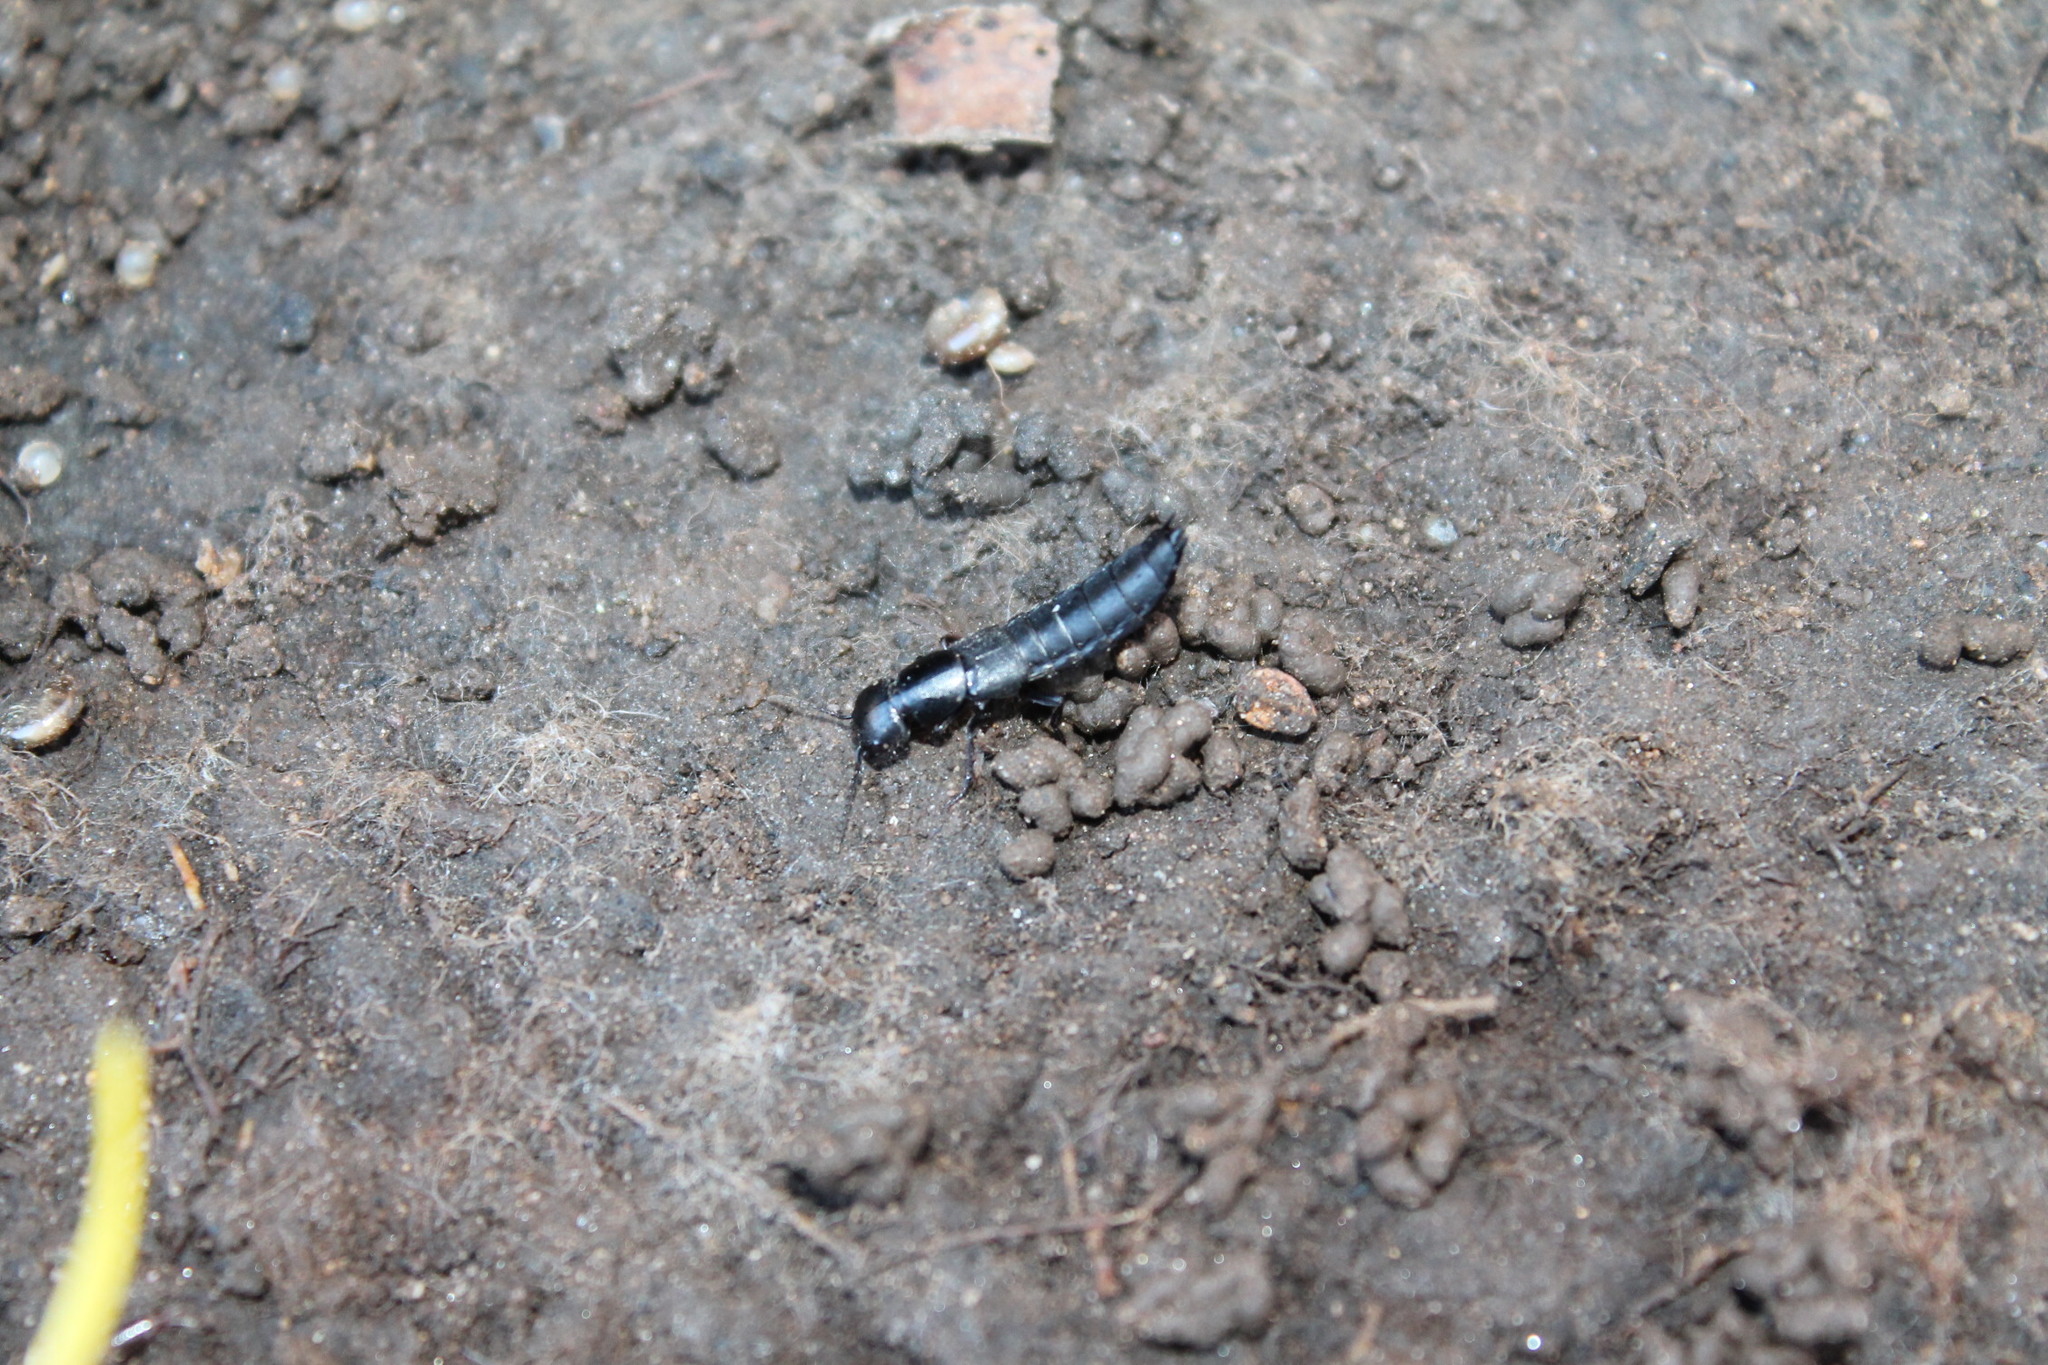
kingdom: Animalia
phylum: Arthropoda
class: Insecta
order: Coleoptera
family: Staphylinidae
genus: Ocypus
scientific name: Ocypus nitens
